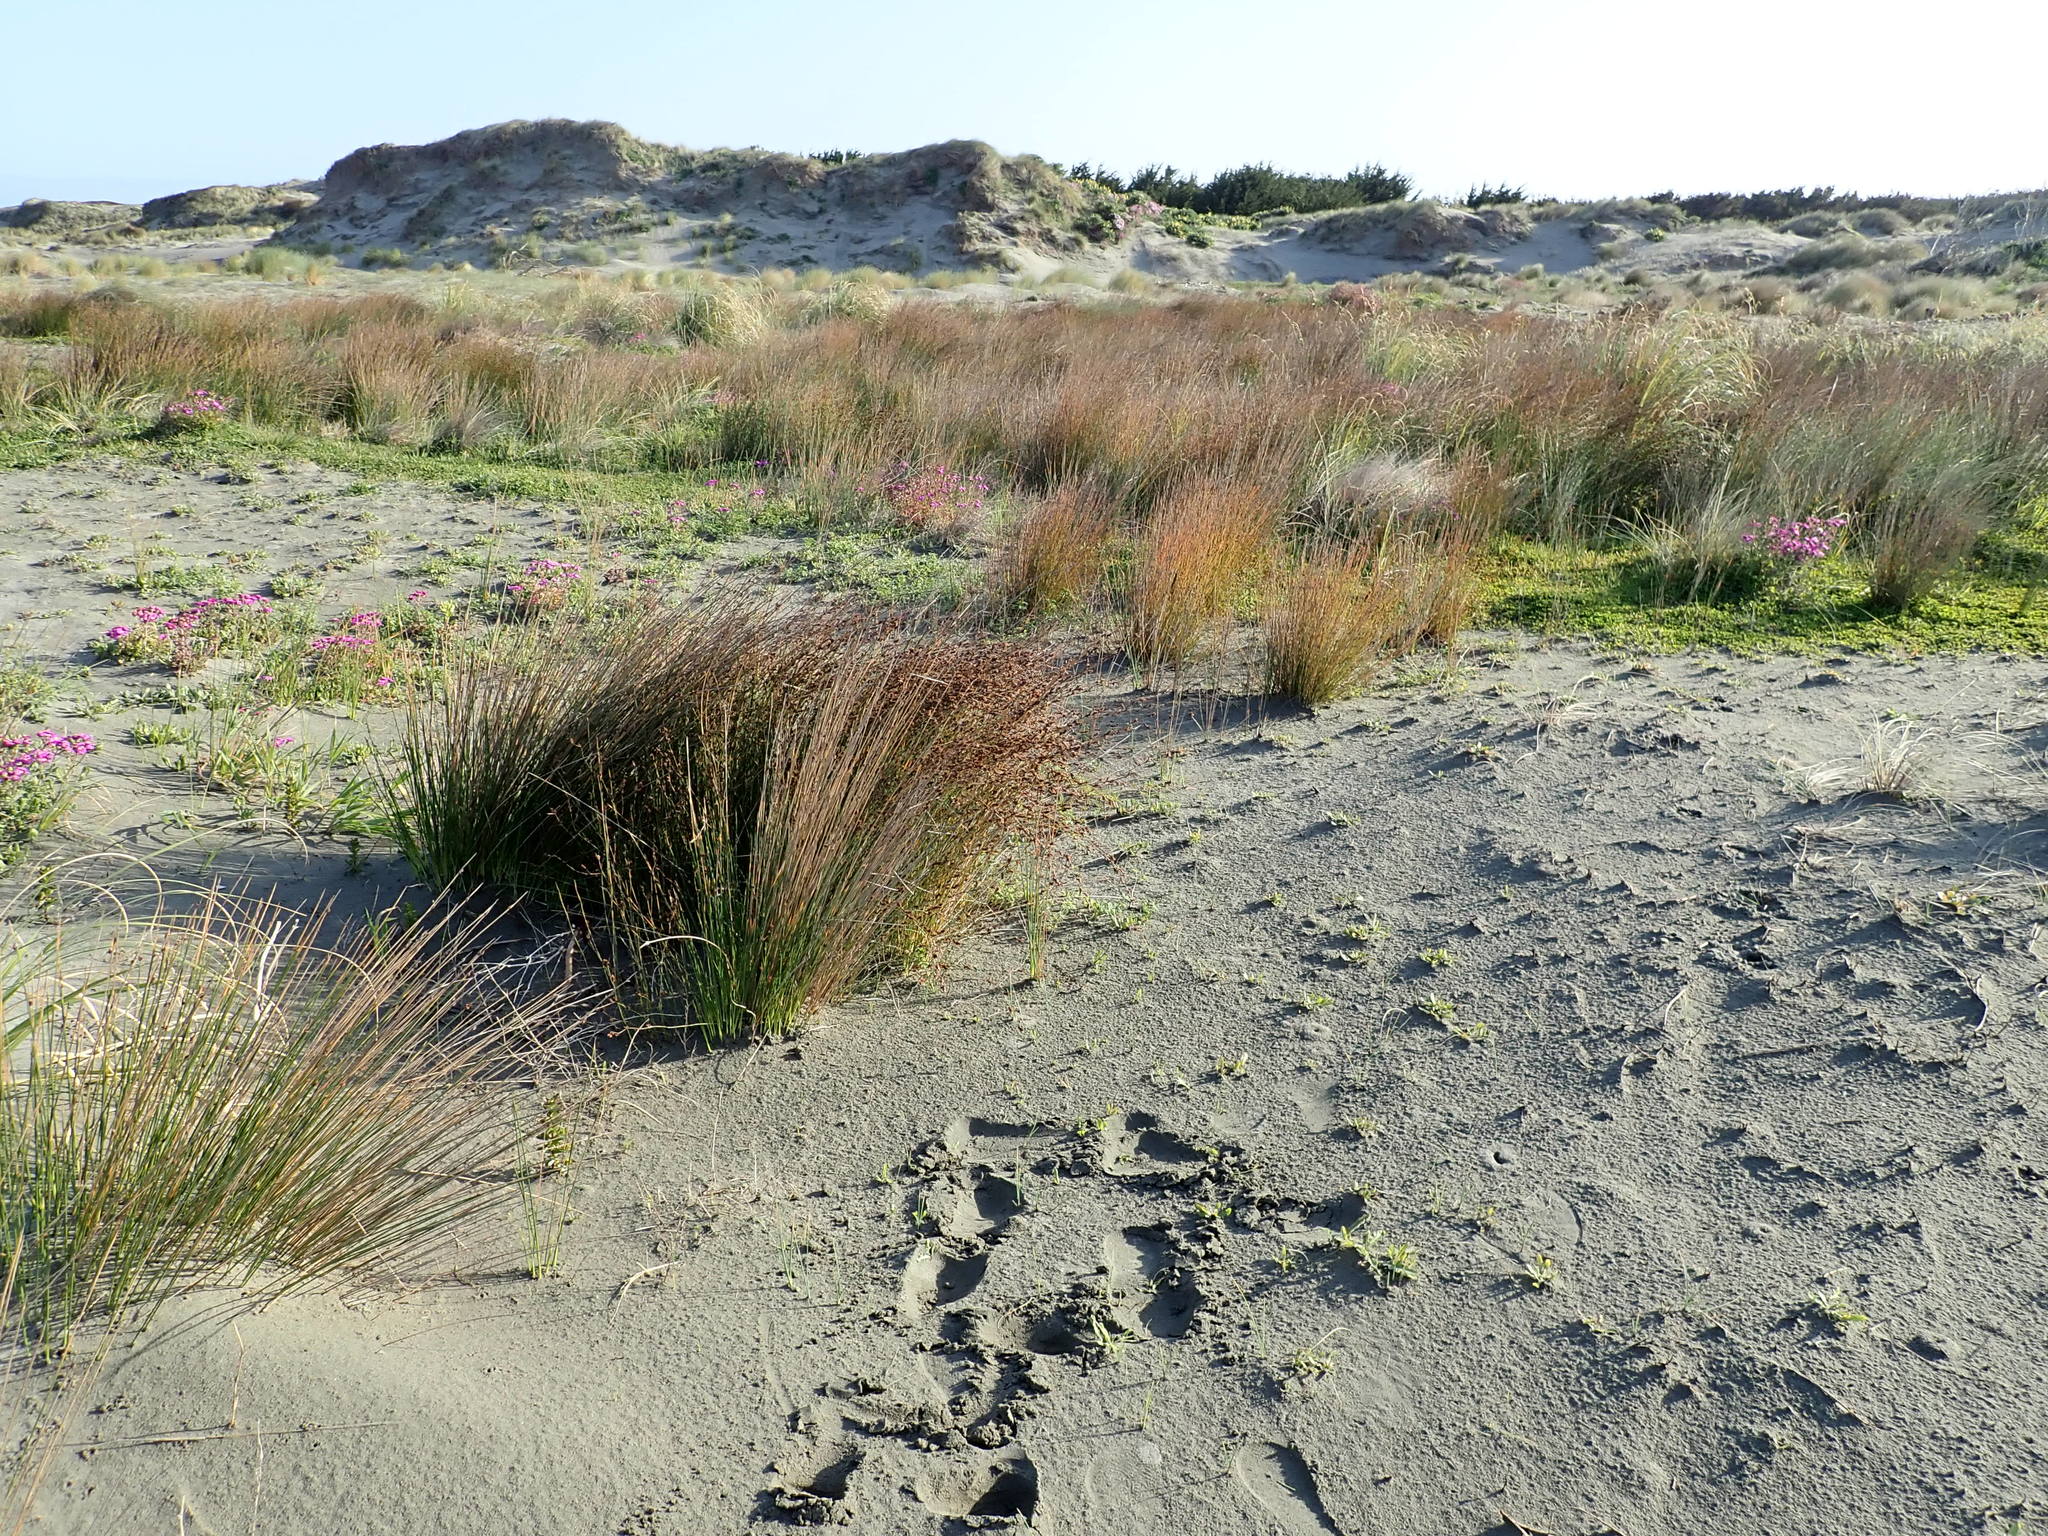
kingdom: Plantae
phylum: Tracheophyta
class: Liliopsida
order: Poales
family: Restionaceae
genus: Apodasmia
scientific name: Apodasmia similis
